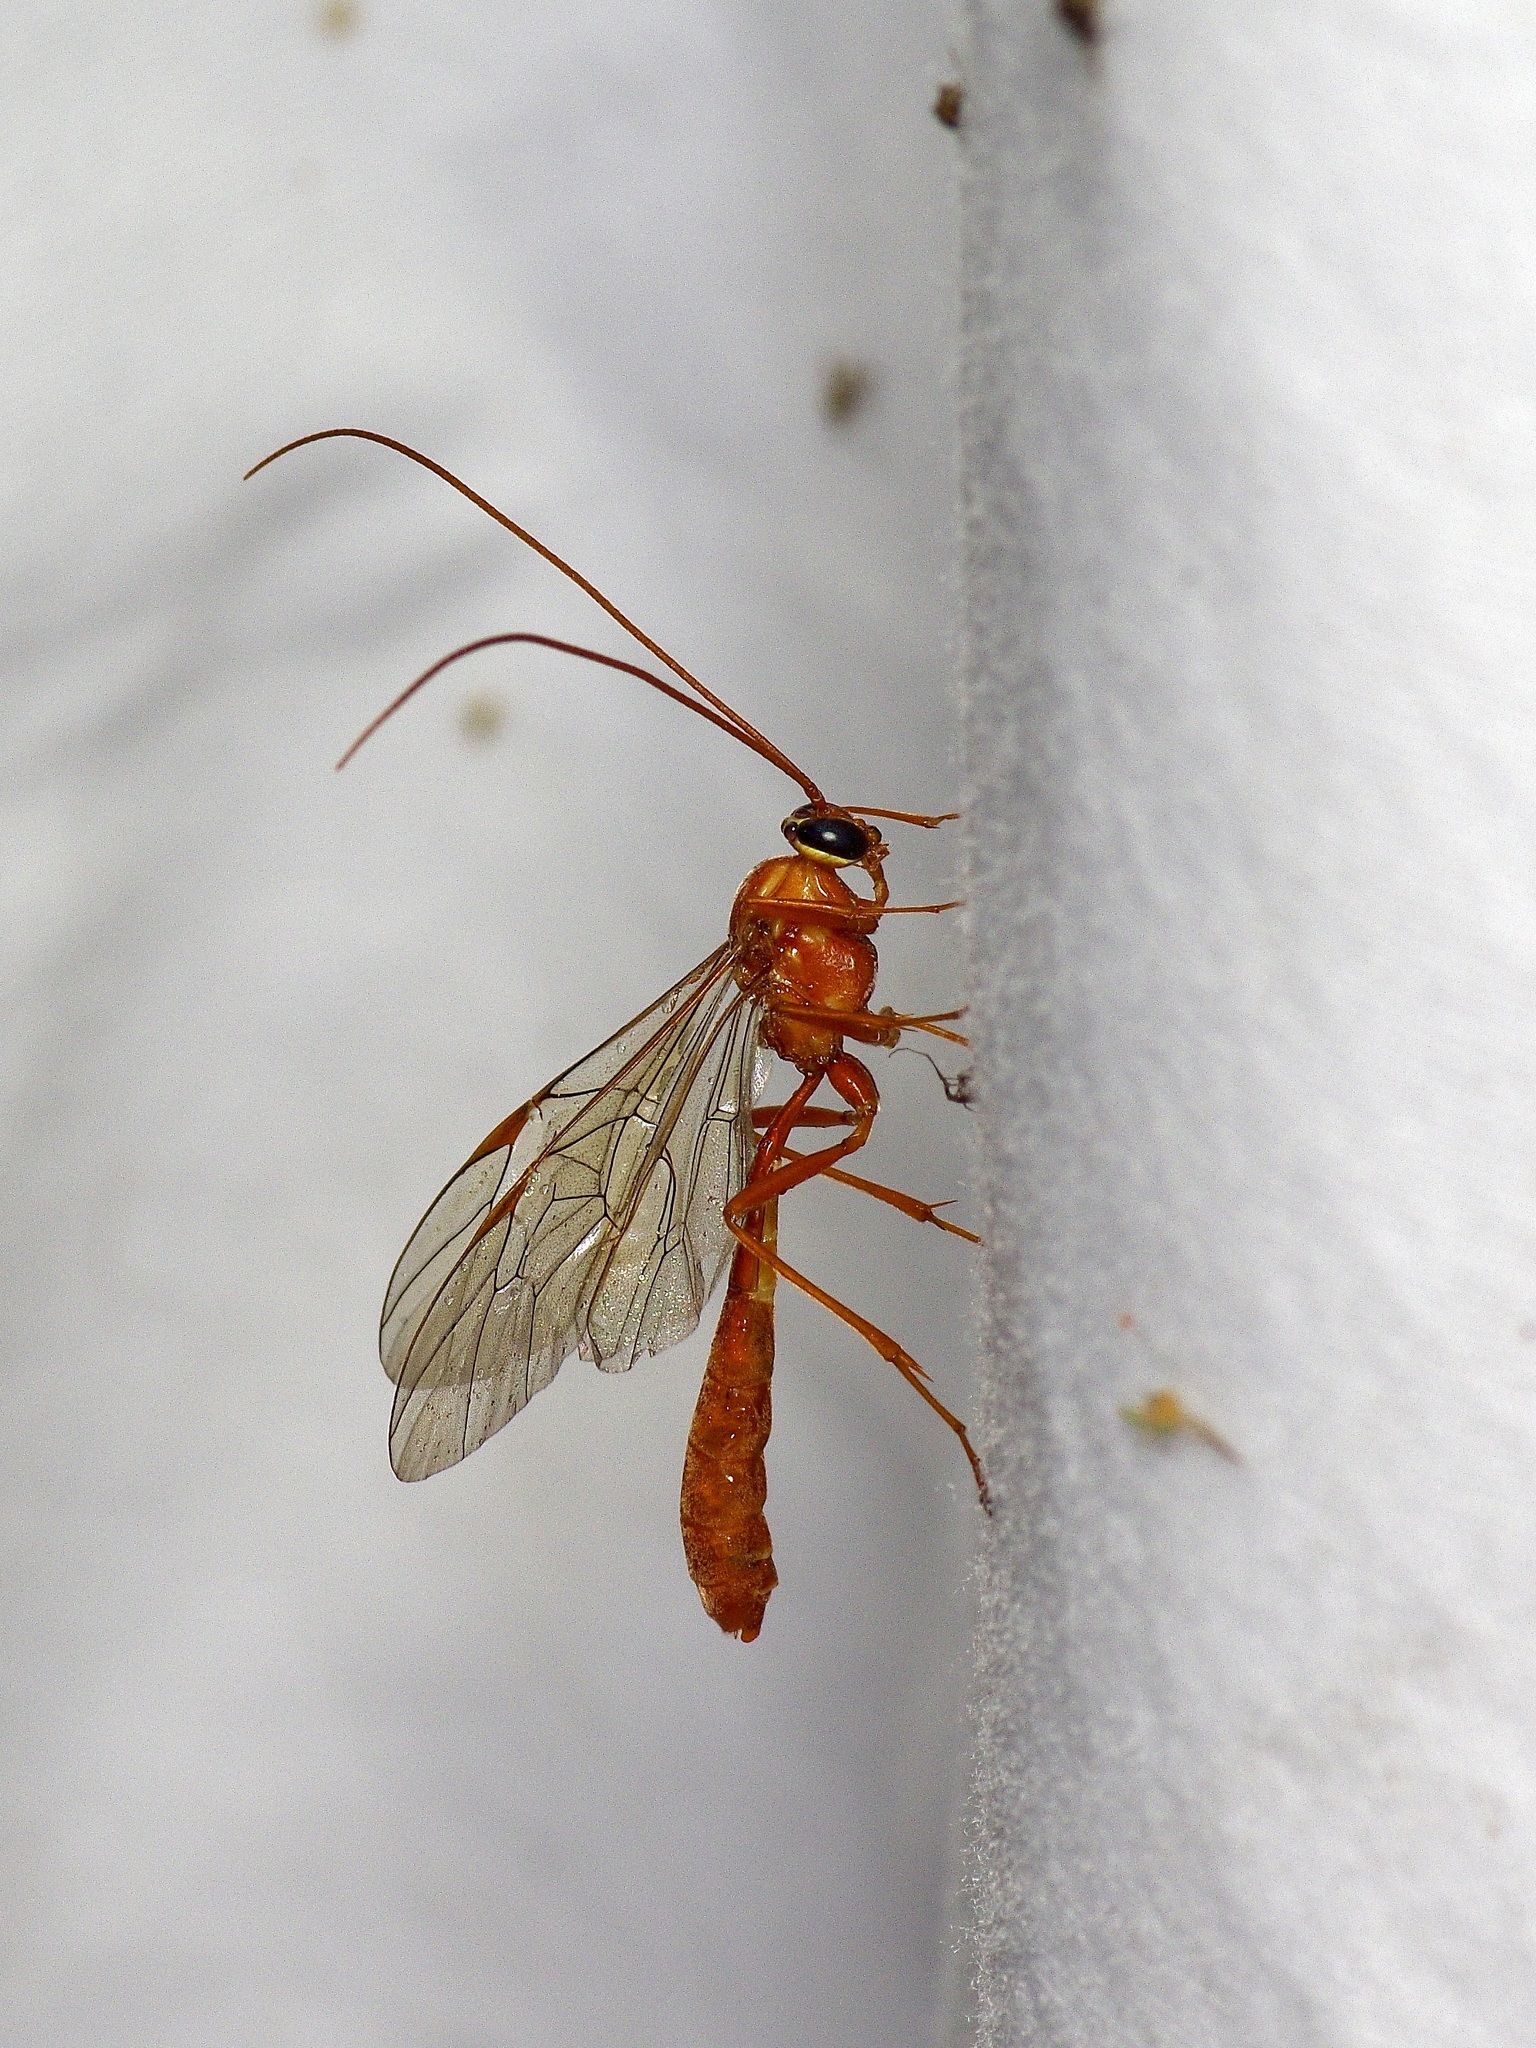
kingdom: Animalia
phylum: Arthropoda
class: Insecta
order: Hymenoptera
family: Ichneumonidae
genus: Ophion
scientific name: Ophion
